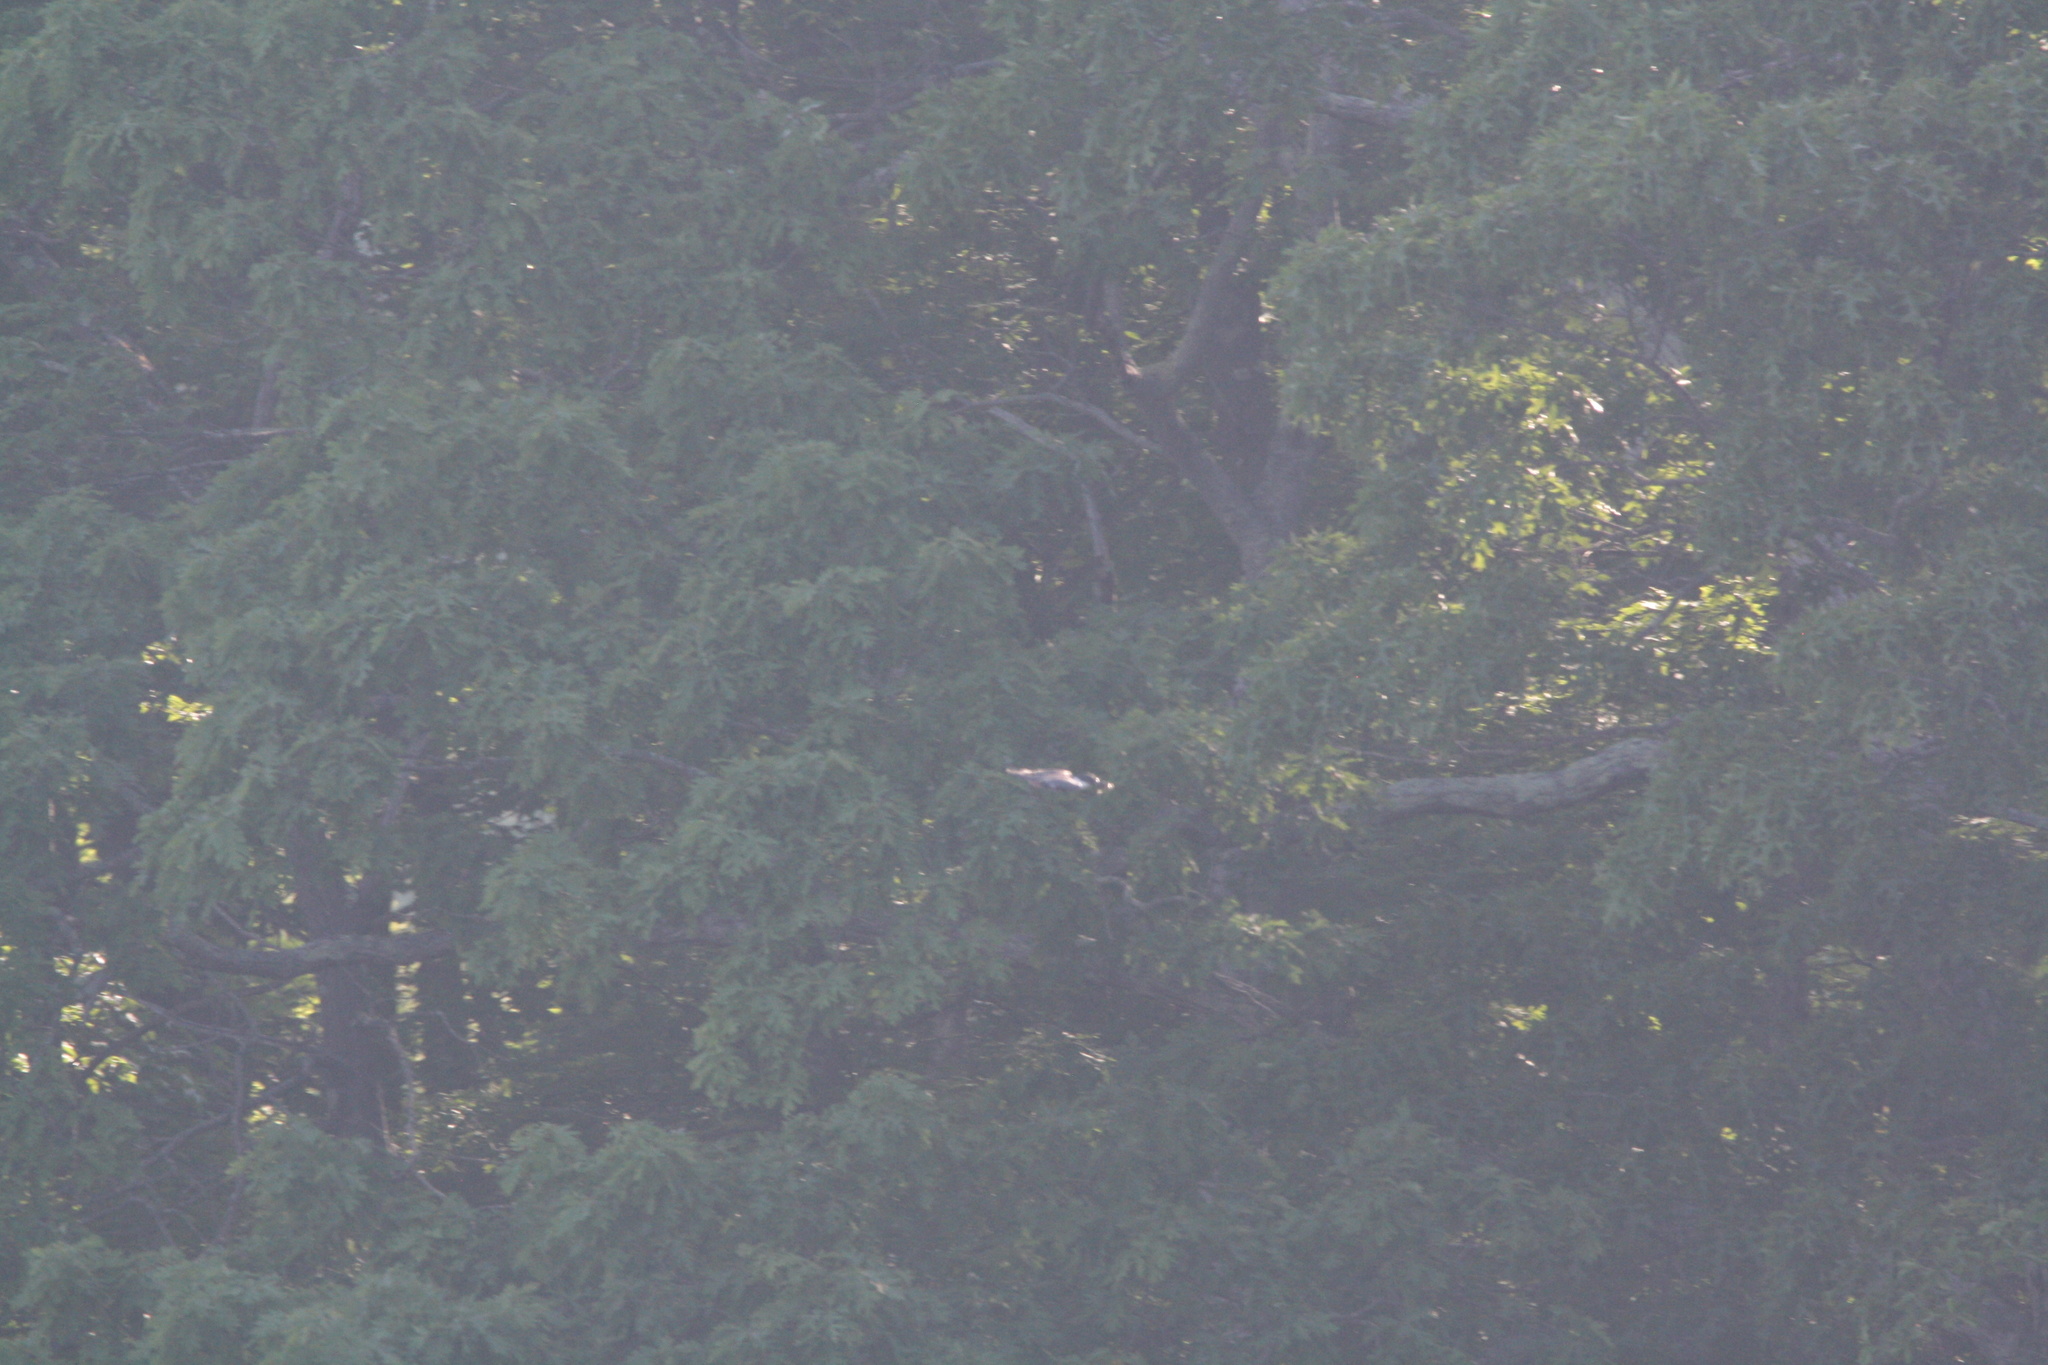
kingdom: Animalia
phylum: Chordata
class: Aves
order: Coraciiformes
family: Alcedinidae
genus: Megaceryle
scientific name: Megaceryle alcyon
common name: Belted kingfisher
